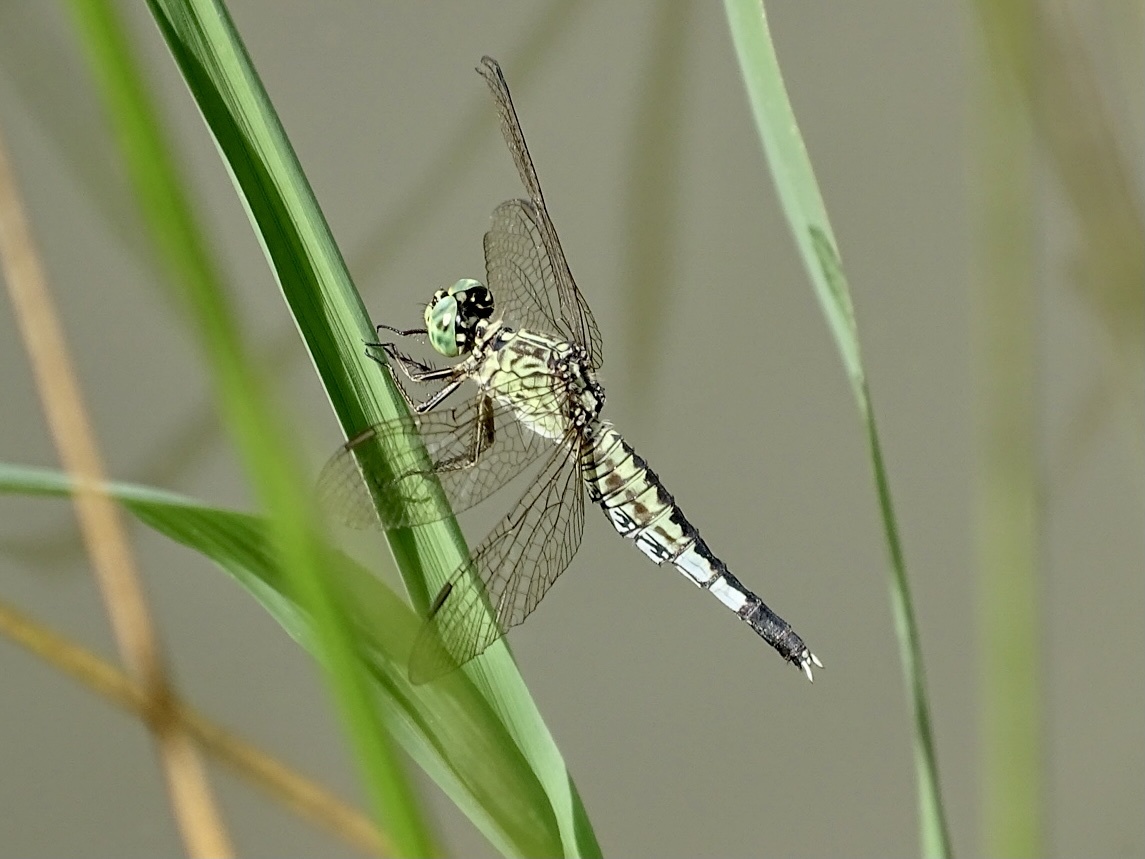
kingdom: Animalia
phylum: Arthropoda
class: Insecta
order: Odonata
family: Libellulidae
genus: Acisoma
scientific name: Acisoma panorpoides
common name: Asian pintail
